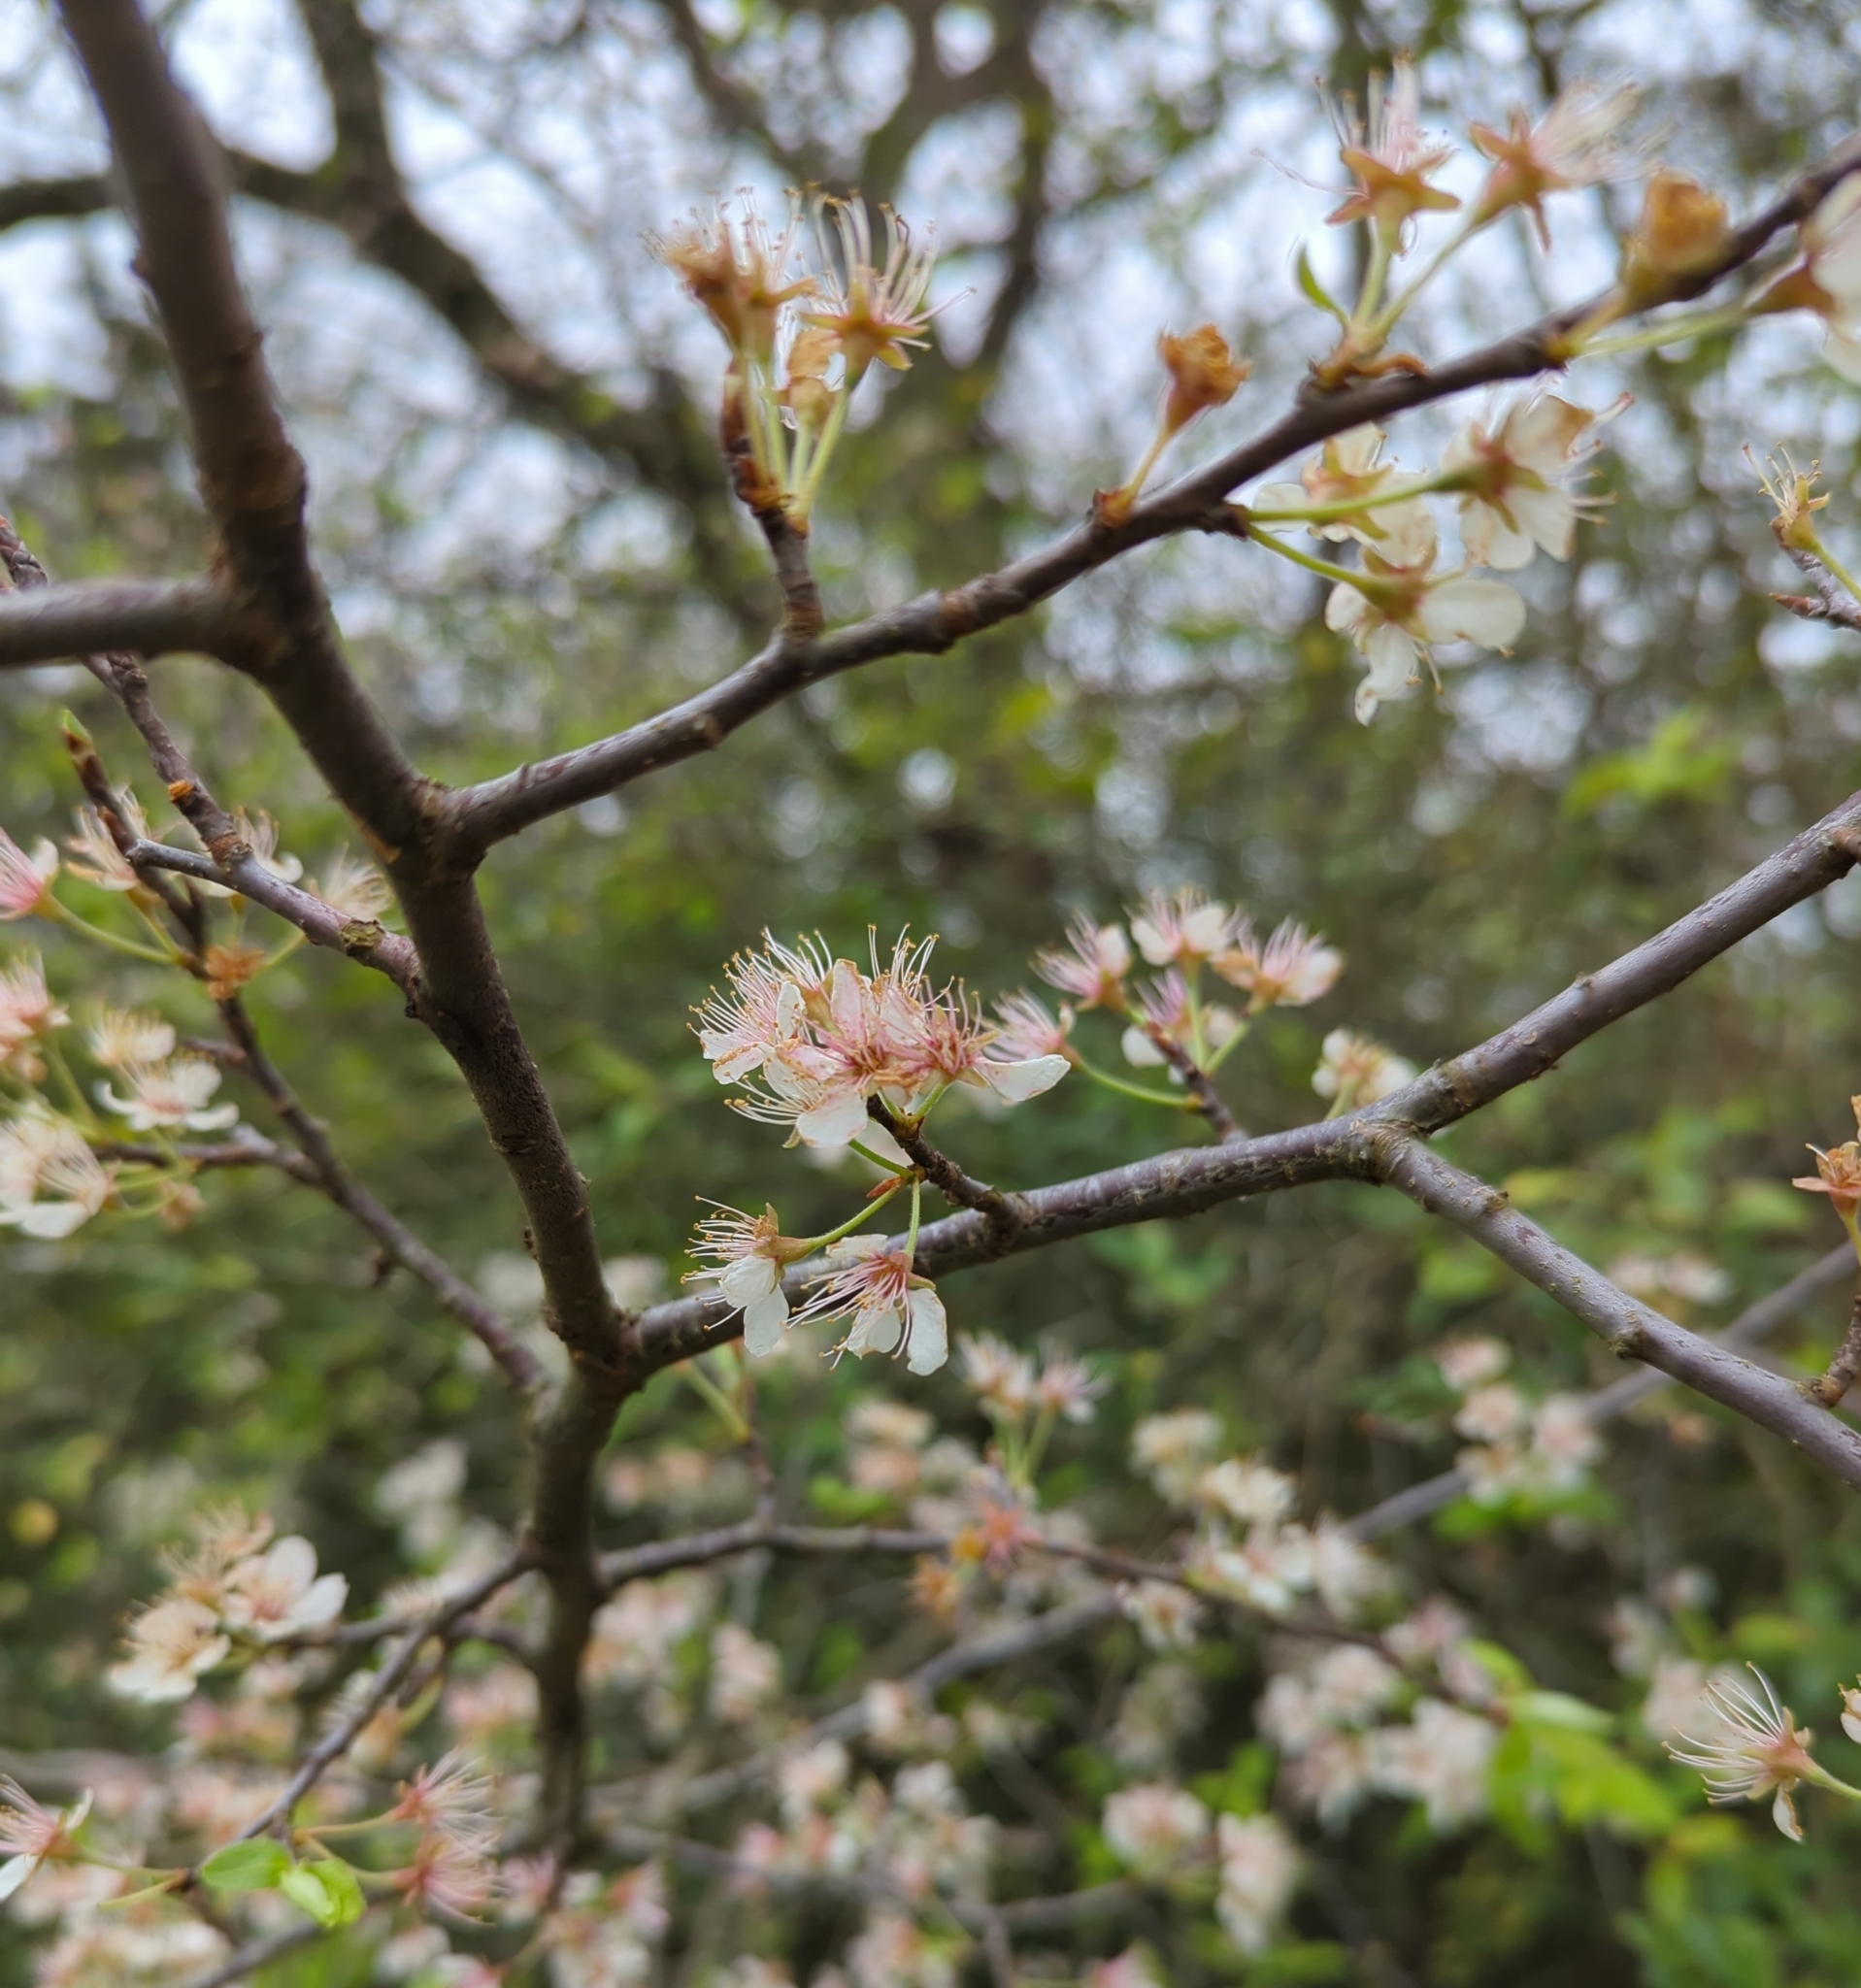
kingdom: Plantae
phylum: Tracheophyta
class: Magnoliopsida
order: Rosales
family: Rosaceae
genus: Prunus
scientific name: Prunus mexicana
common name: Mexican plum
